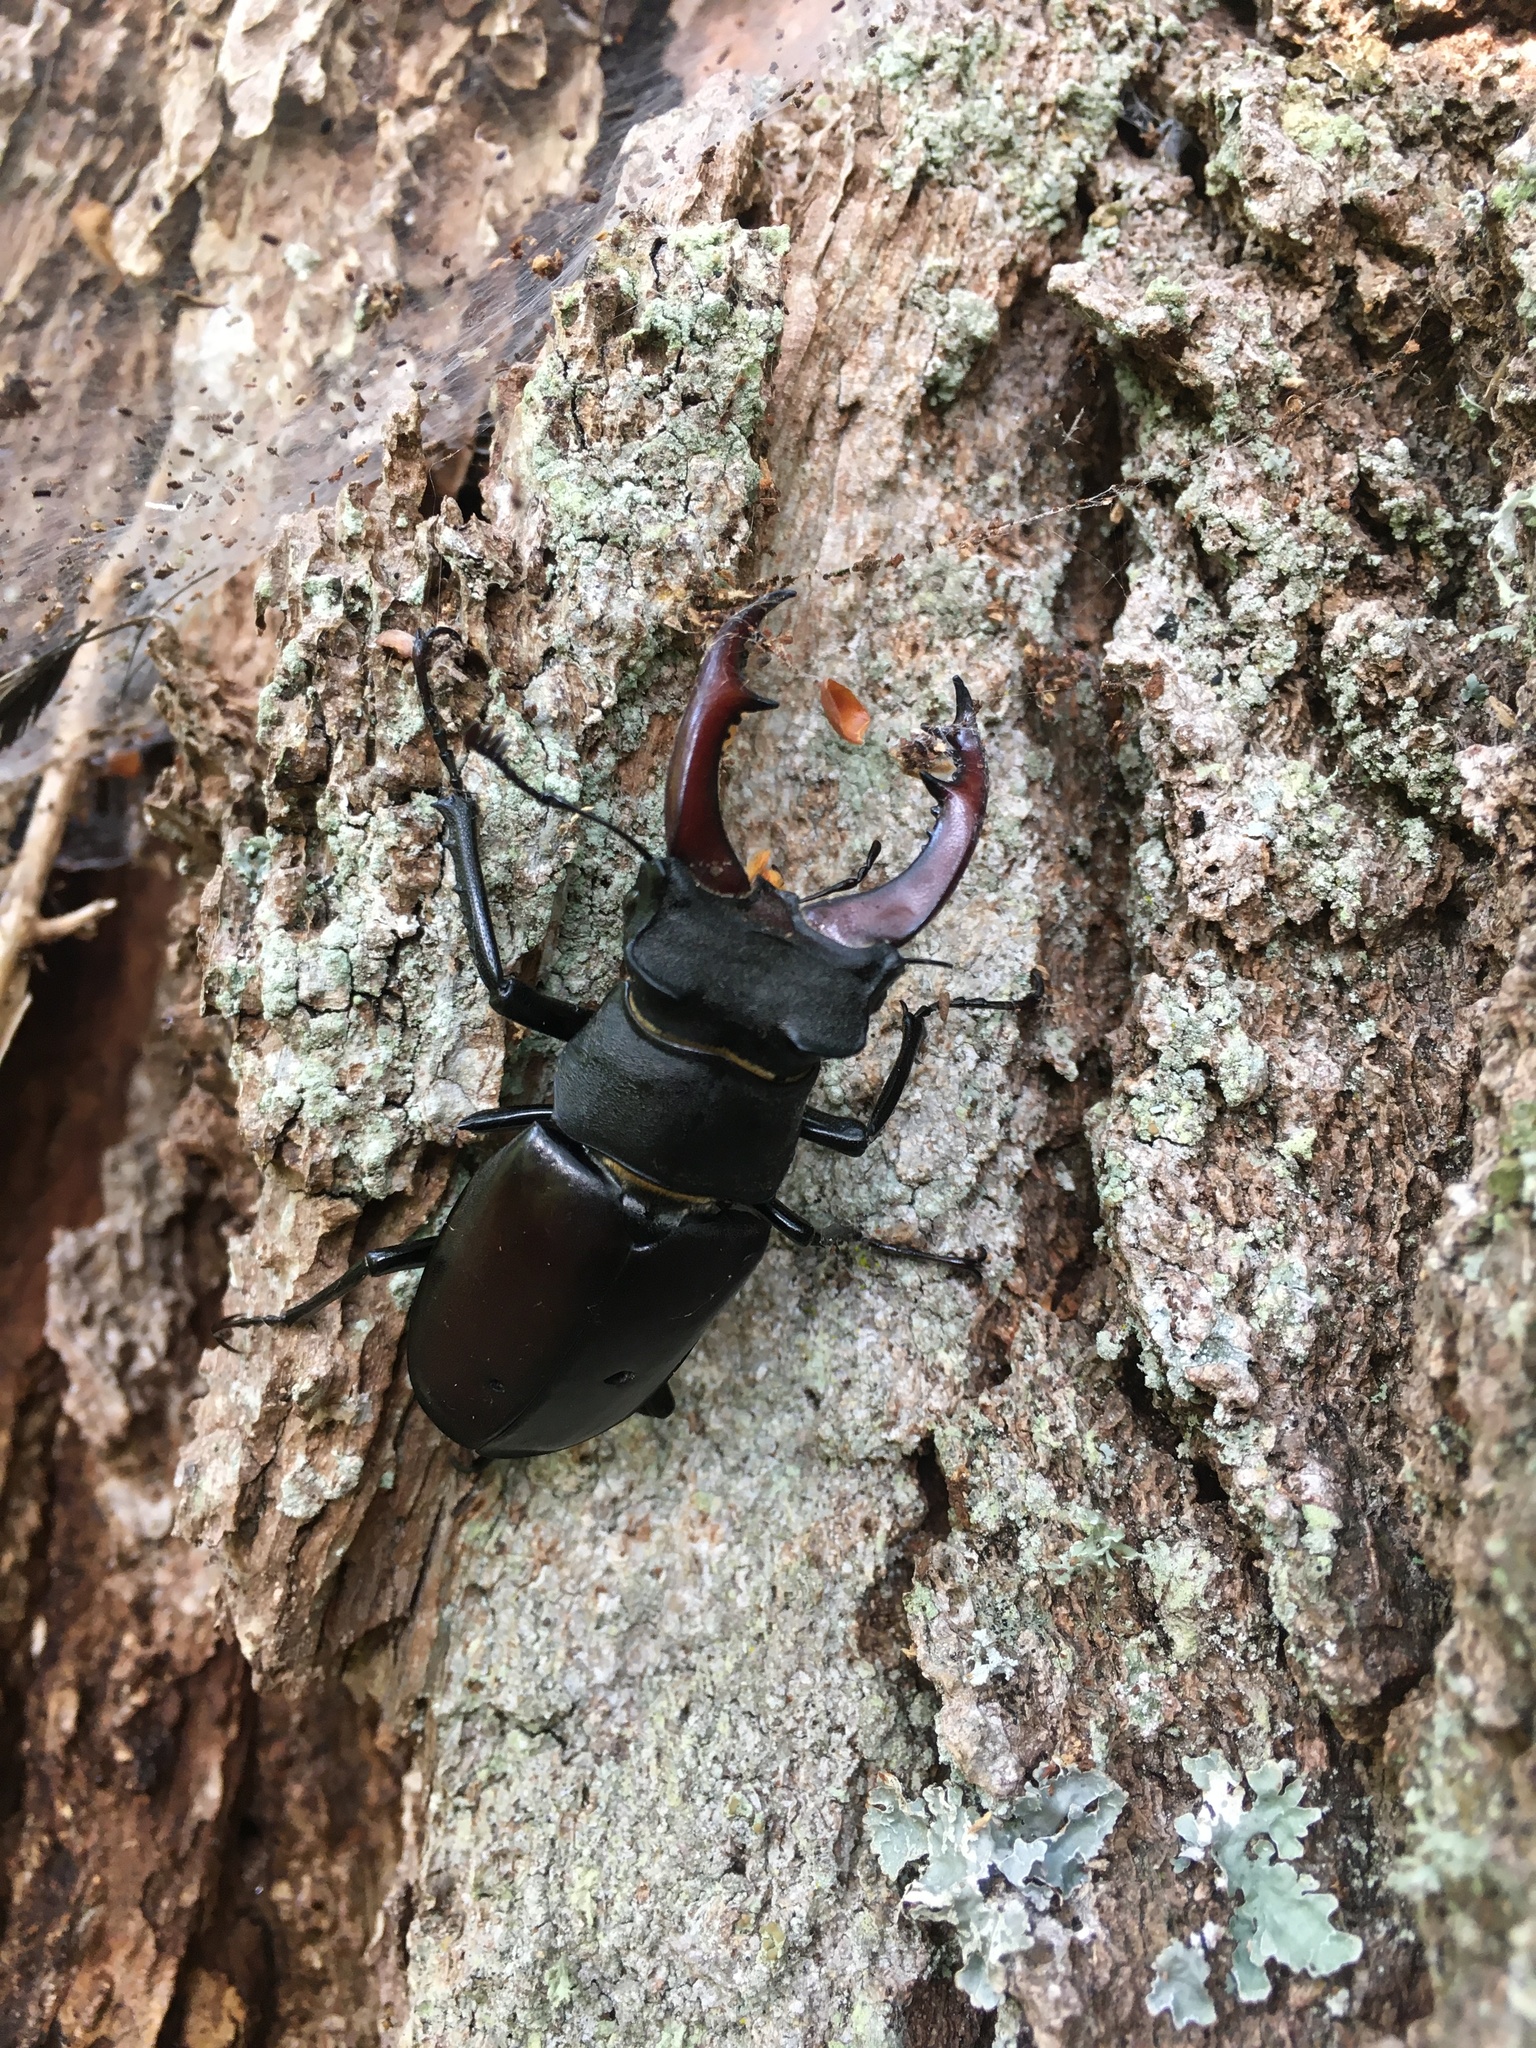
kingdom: Animalia
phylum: Arthropoda
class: Insecta
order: Coleoptera
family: Lucanidae
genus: Lucanus
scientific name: Lucanus cervus
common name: Stag beetle
